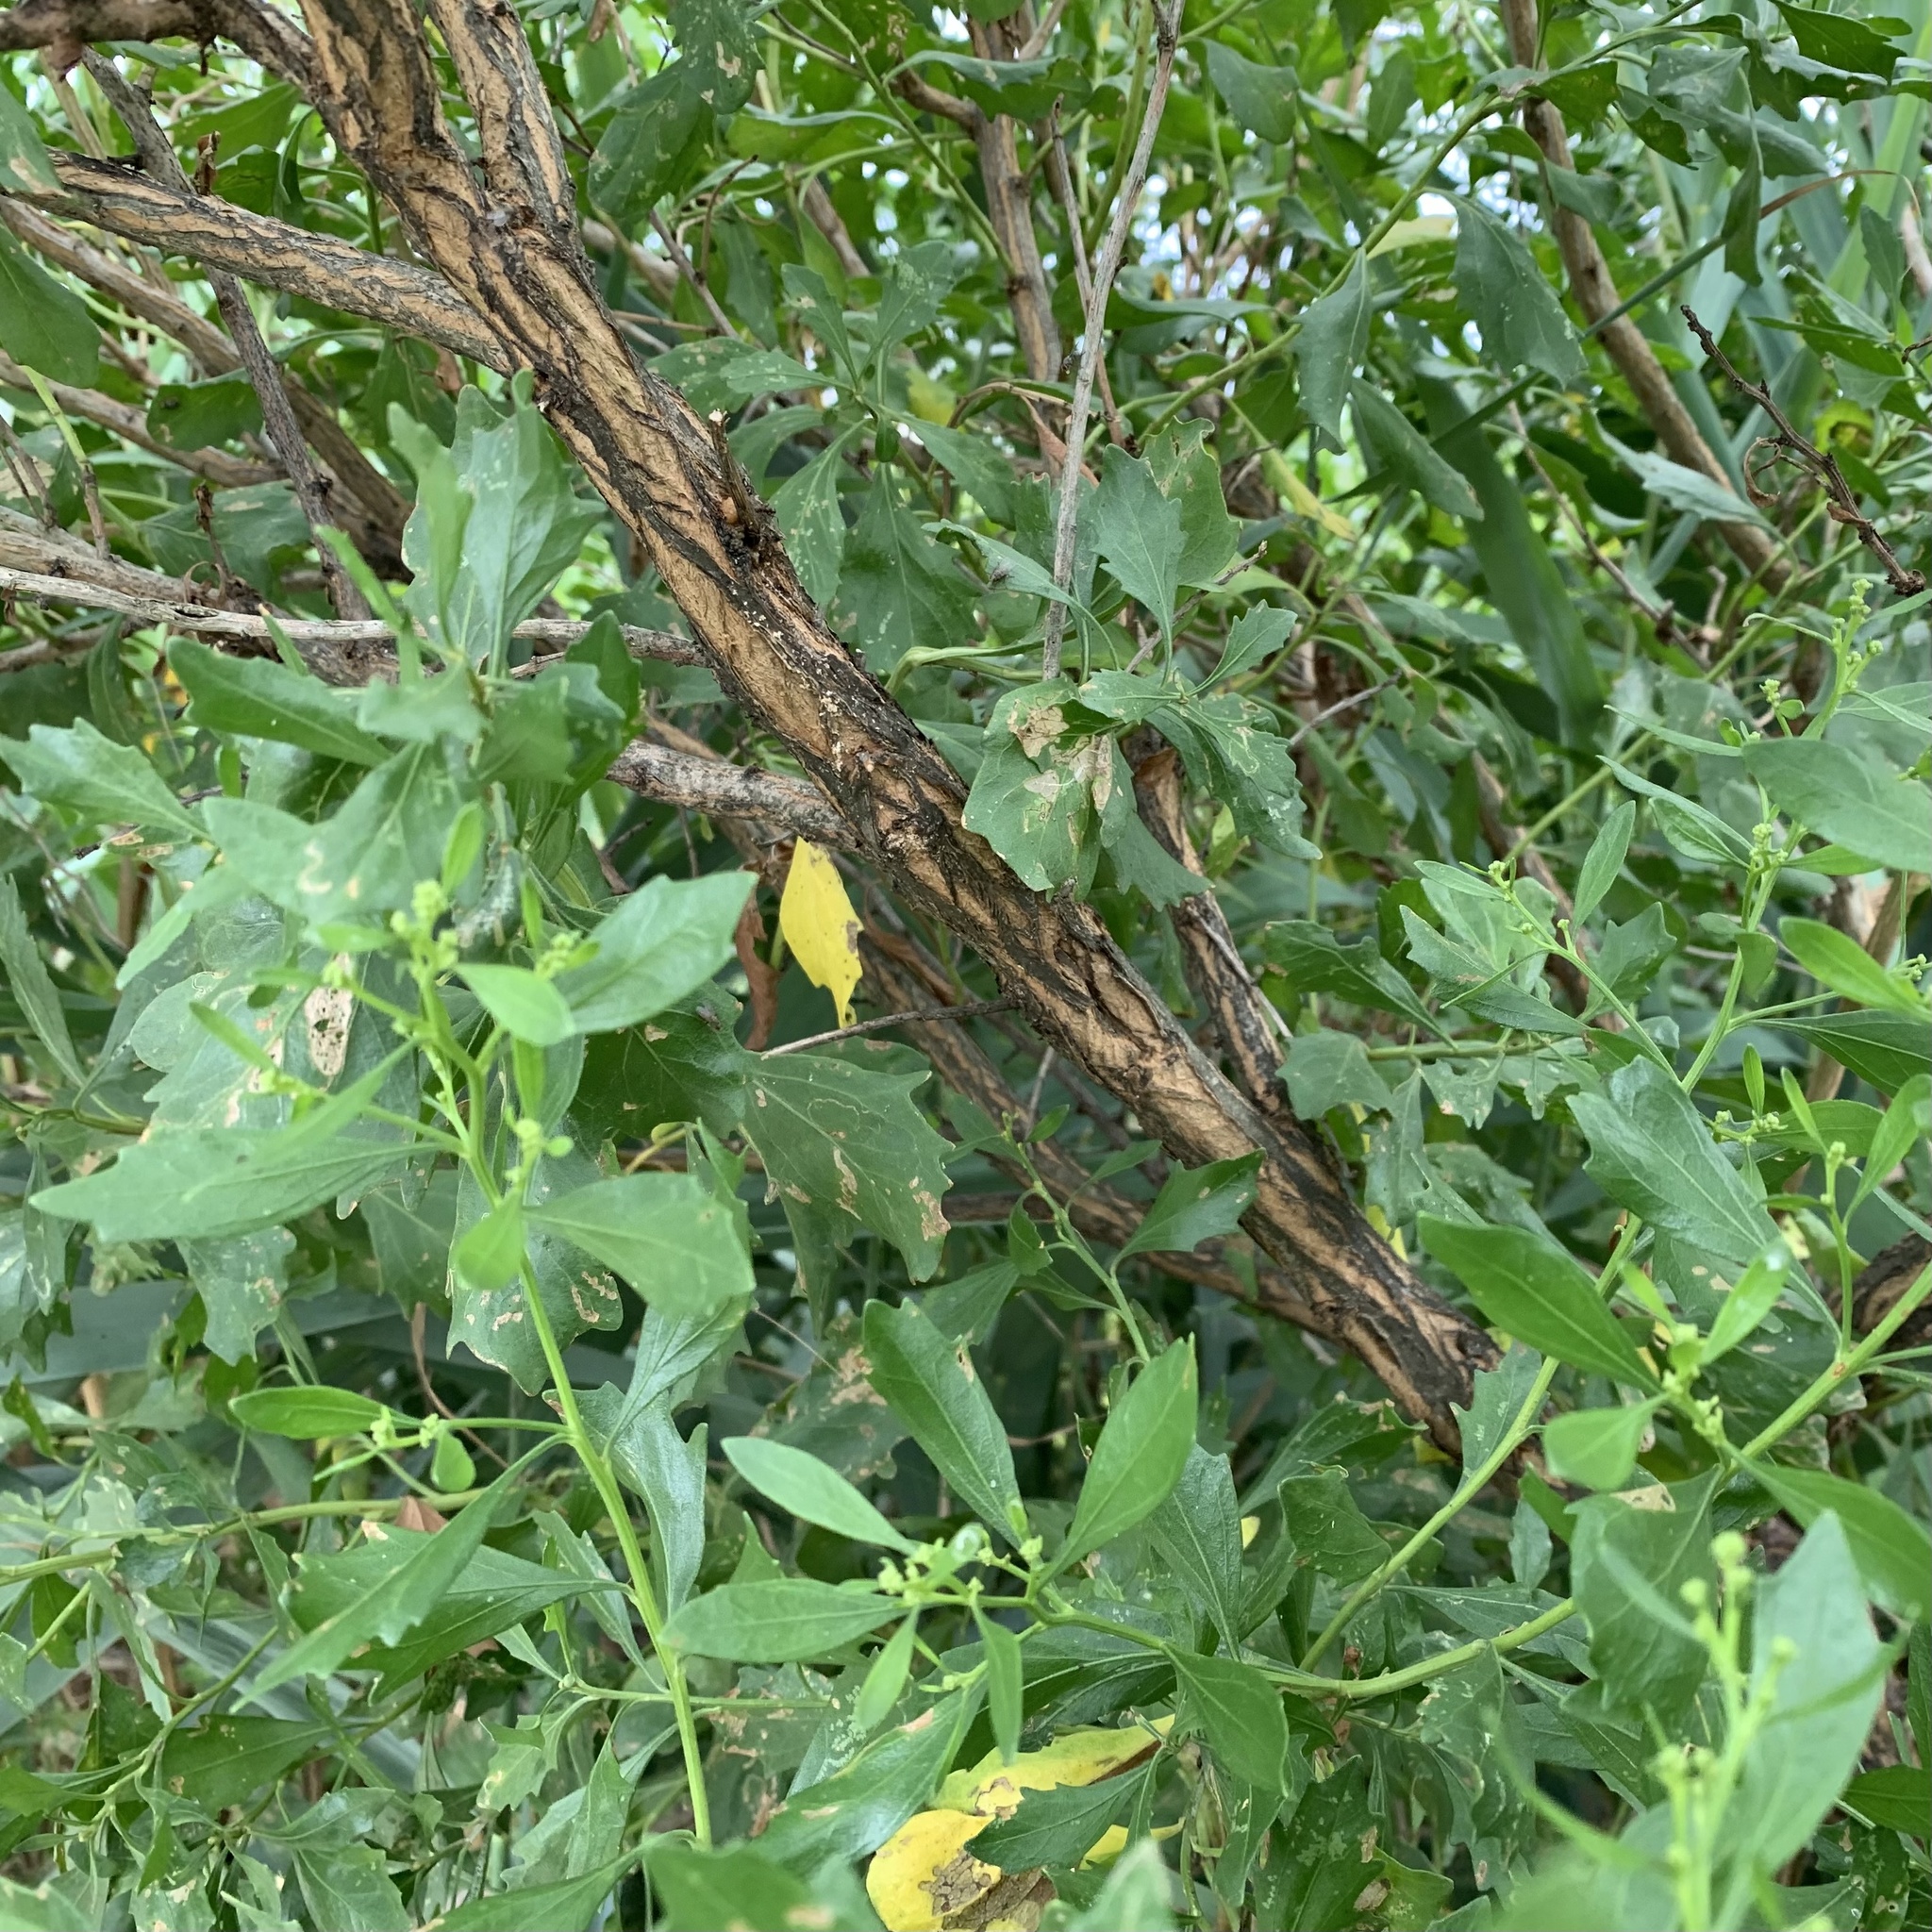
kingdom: Plantae
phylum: Tracheophyta
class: Magnoliopsida
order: Asterales
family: Asteraceae
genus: Baccharis
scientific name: Baccharis halimifolia
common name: Eastern baccharis
